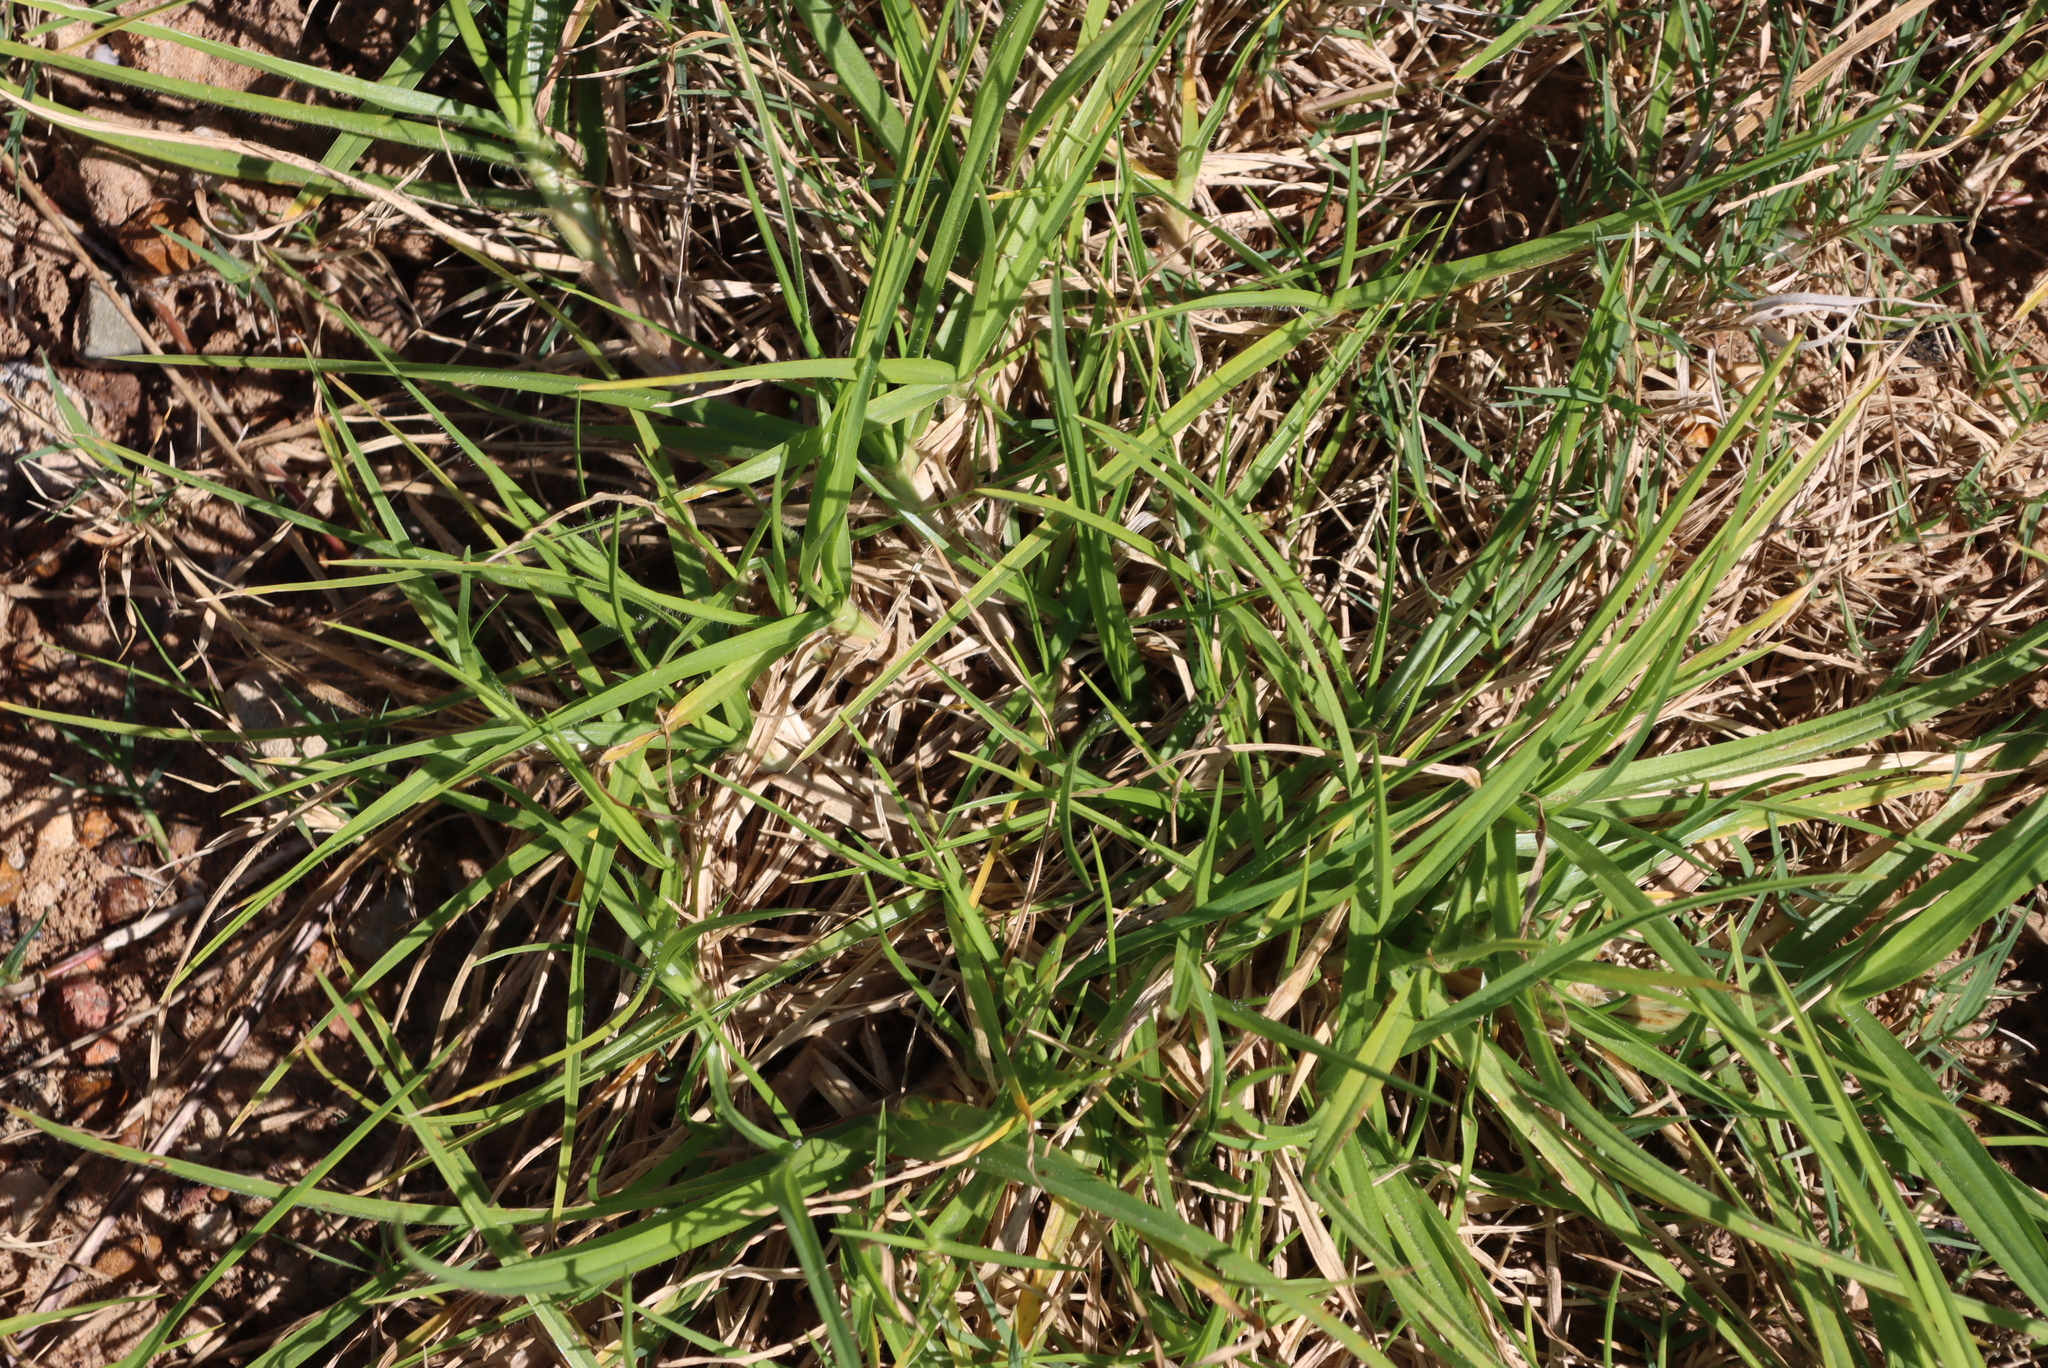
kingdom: Plantae
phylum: Tracheophyta
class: Liliopsida
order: Poales
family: Poaceae
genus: Cenchrus
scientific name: Cenchrus clandestinus
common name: Kikuyugrass
